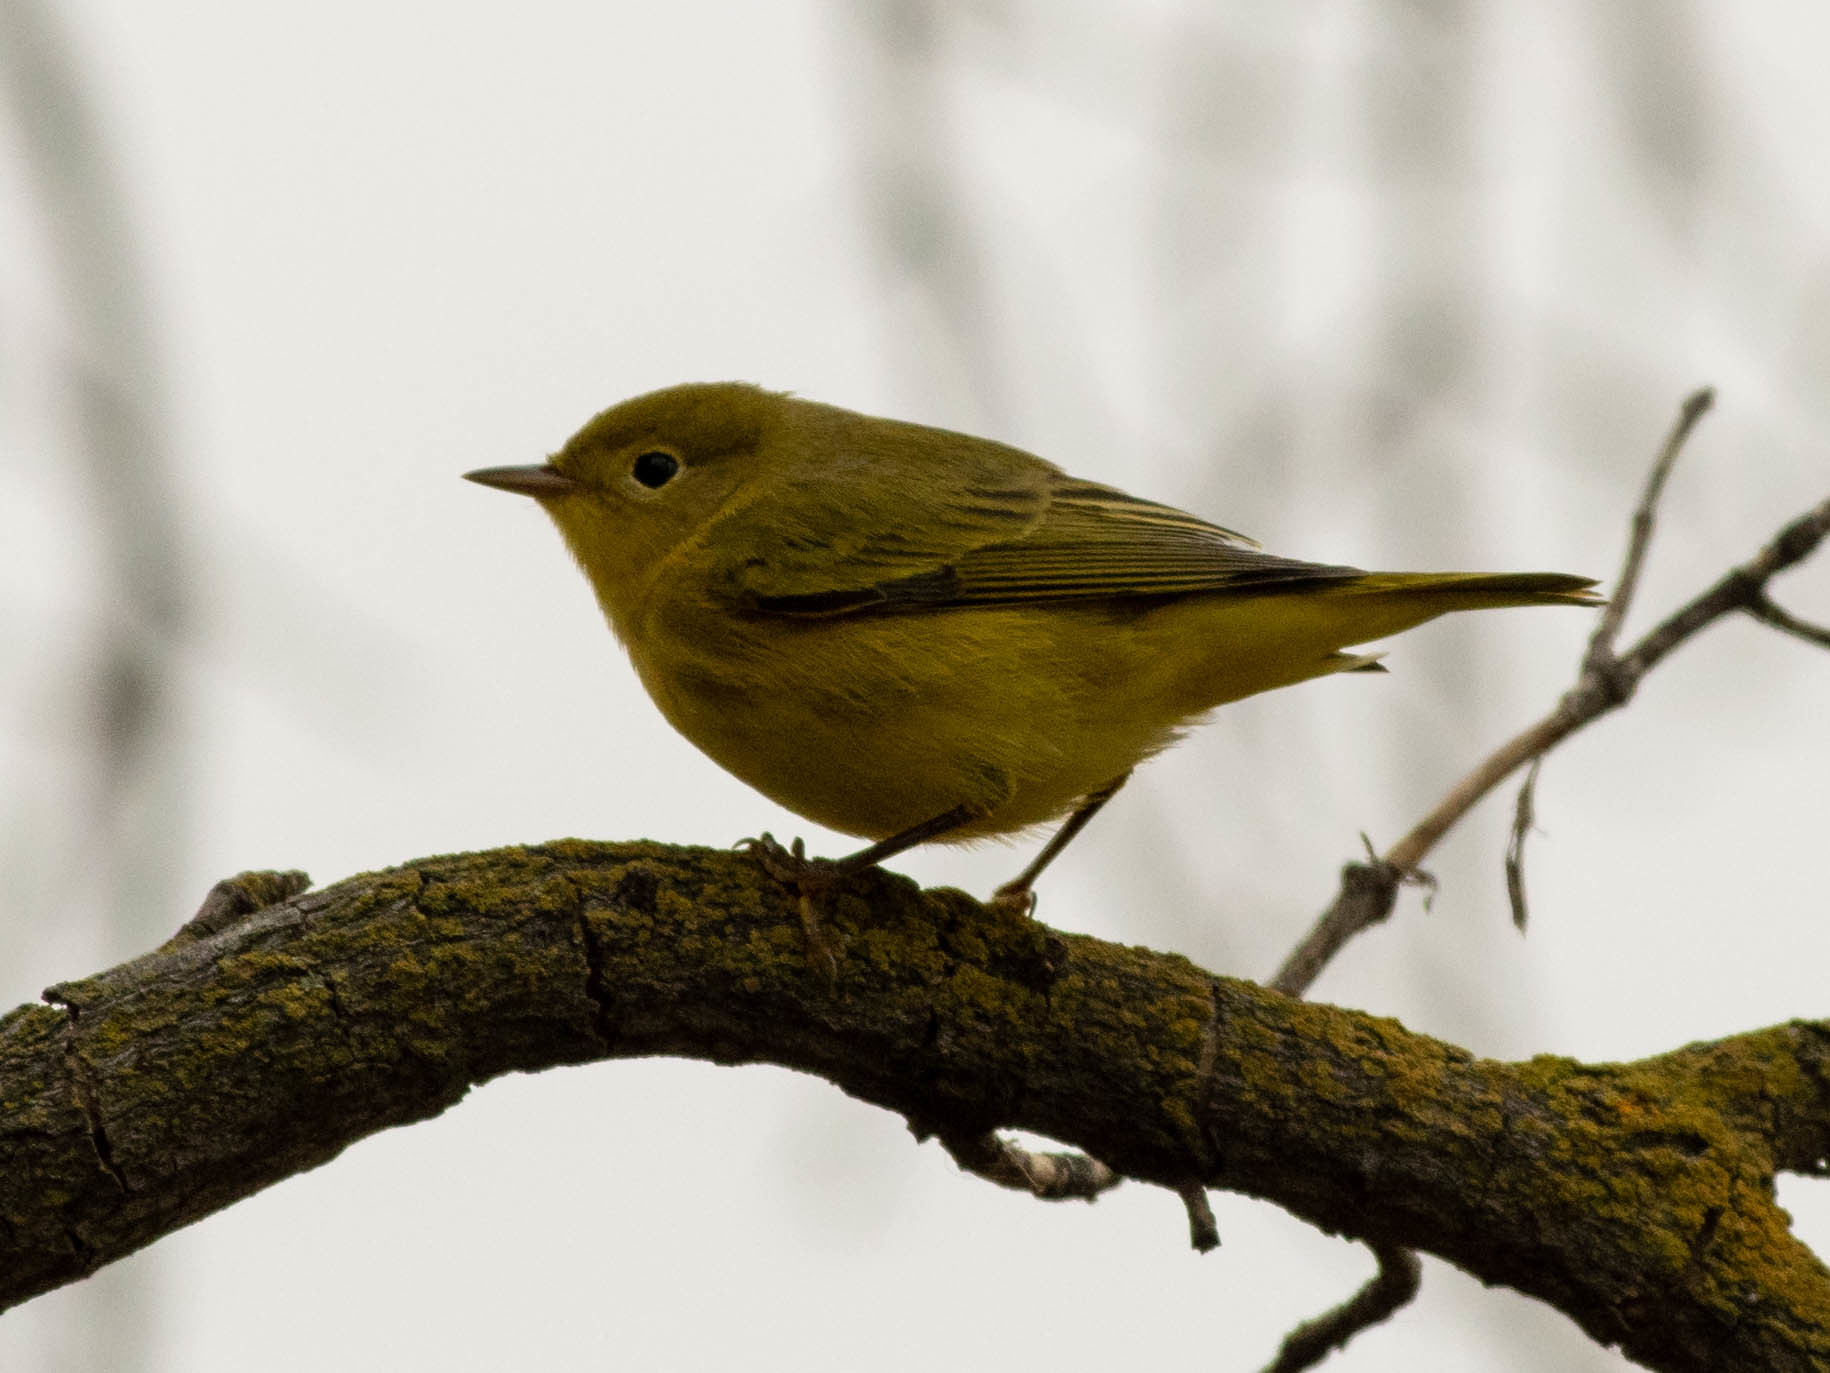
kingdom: Animalia
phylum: Chordata
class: Aves
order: Passeriformes
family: Parulidae
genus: Setophaga
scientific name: Setophaga petechia
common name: Yellow warbler
